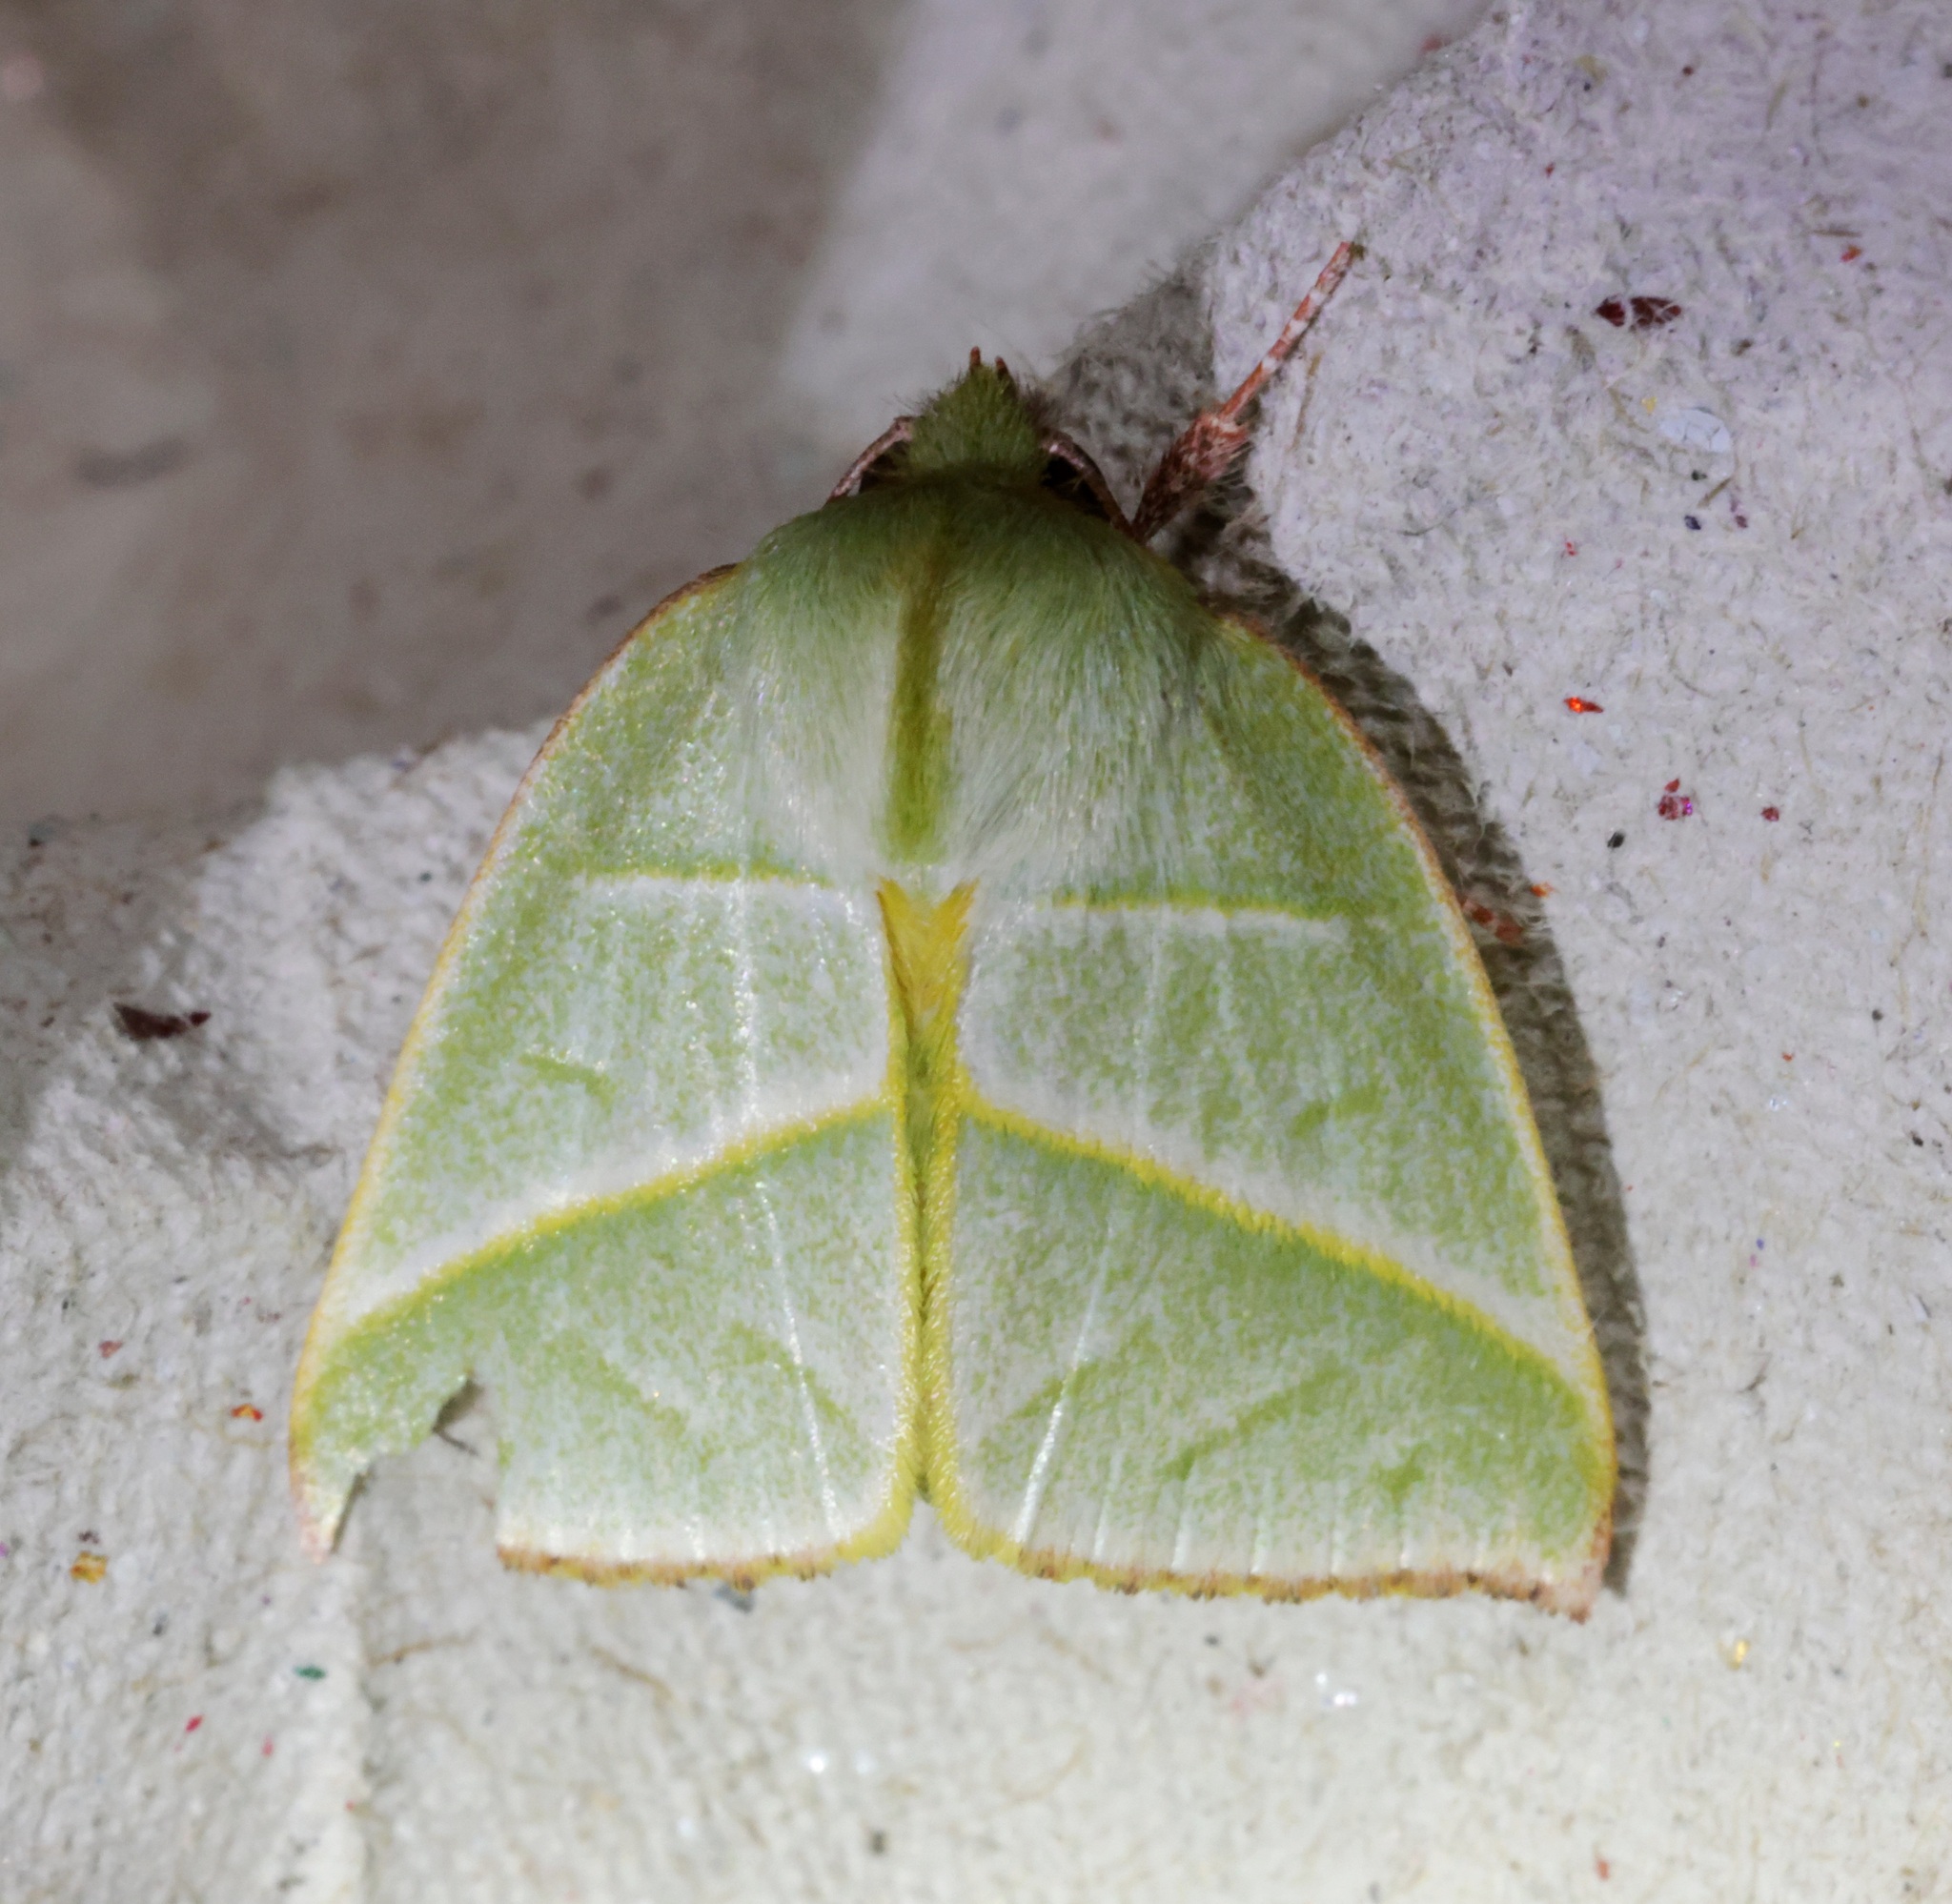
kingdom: Animalia
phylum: Arthropoda
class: Insecta
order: Lepidoptera
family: Nolidae
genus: Hylophilodes
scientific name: Hylophilodes tsukusensis
